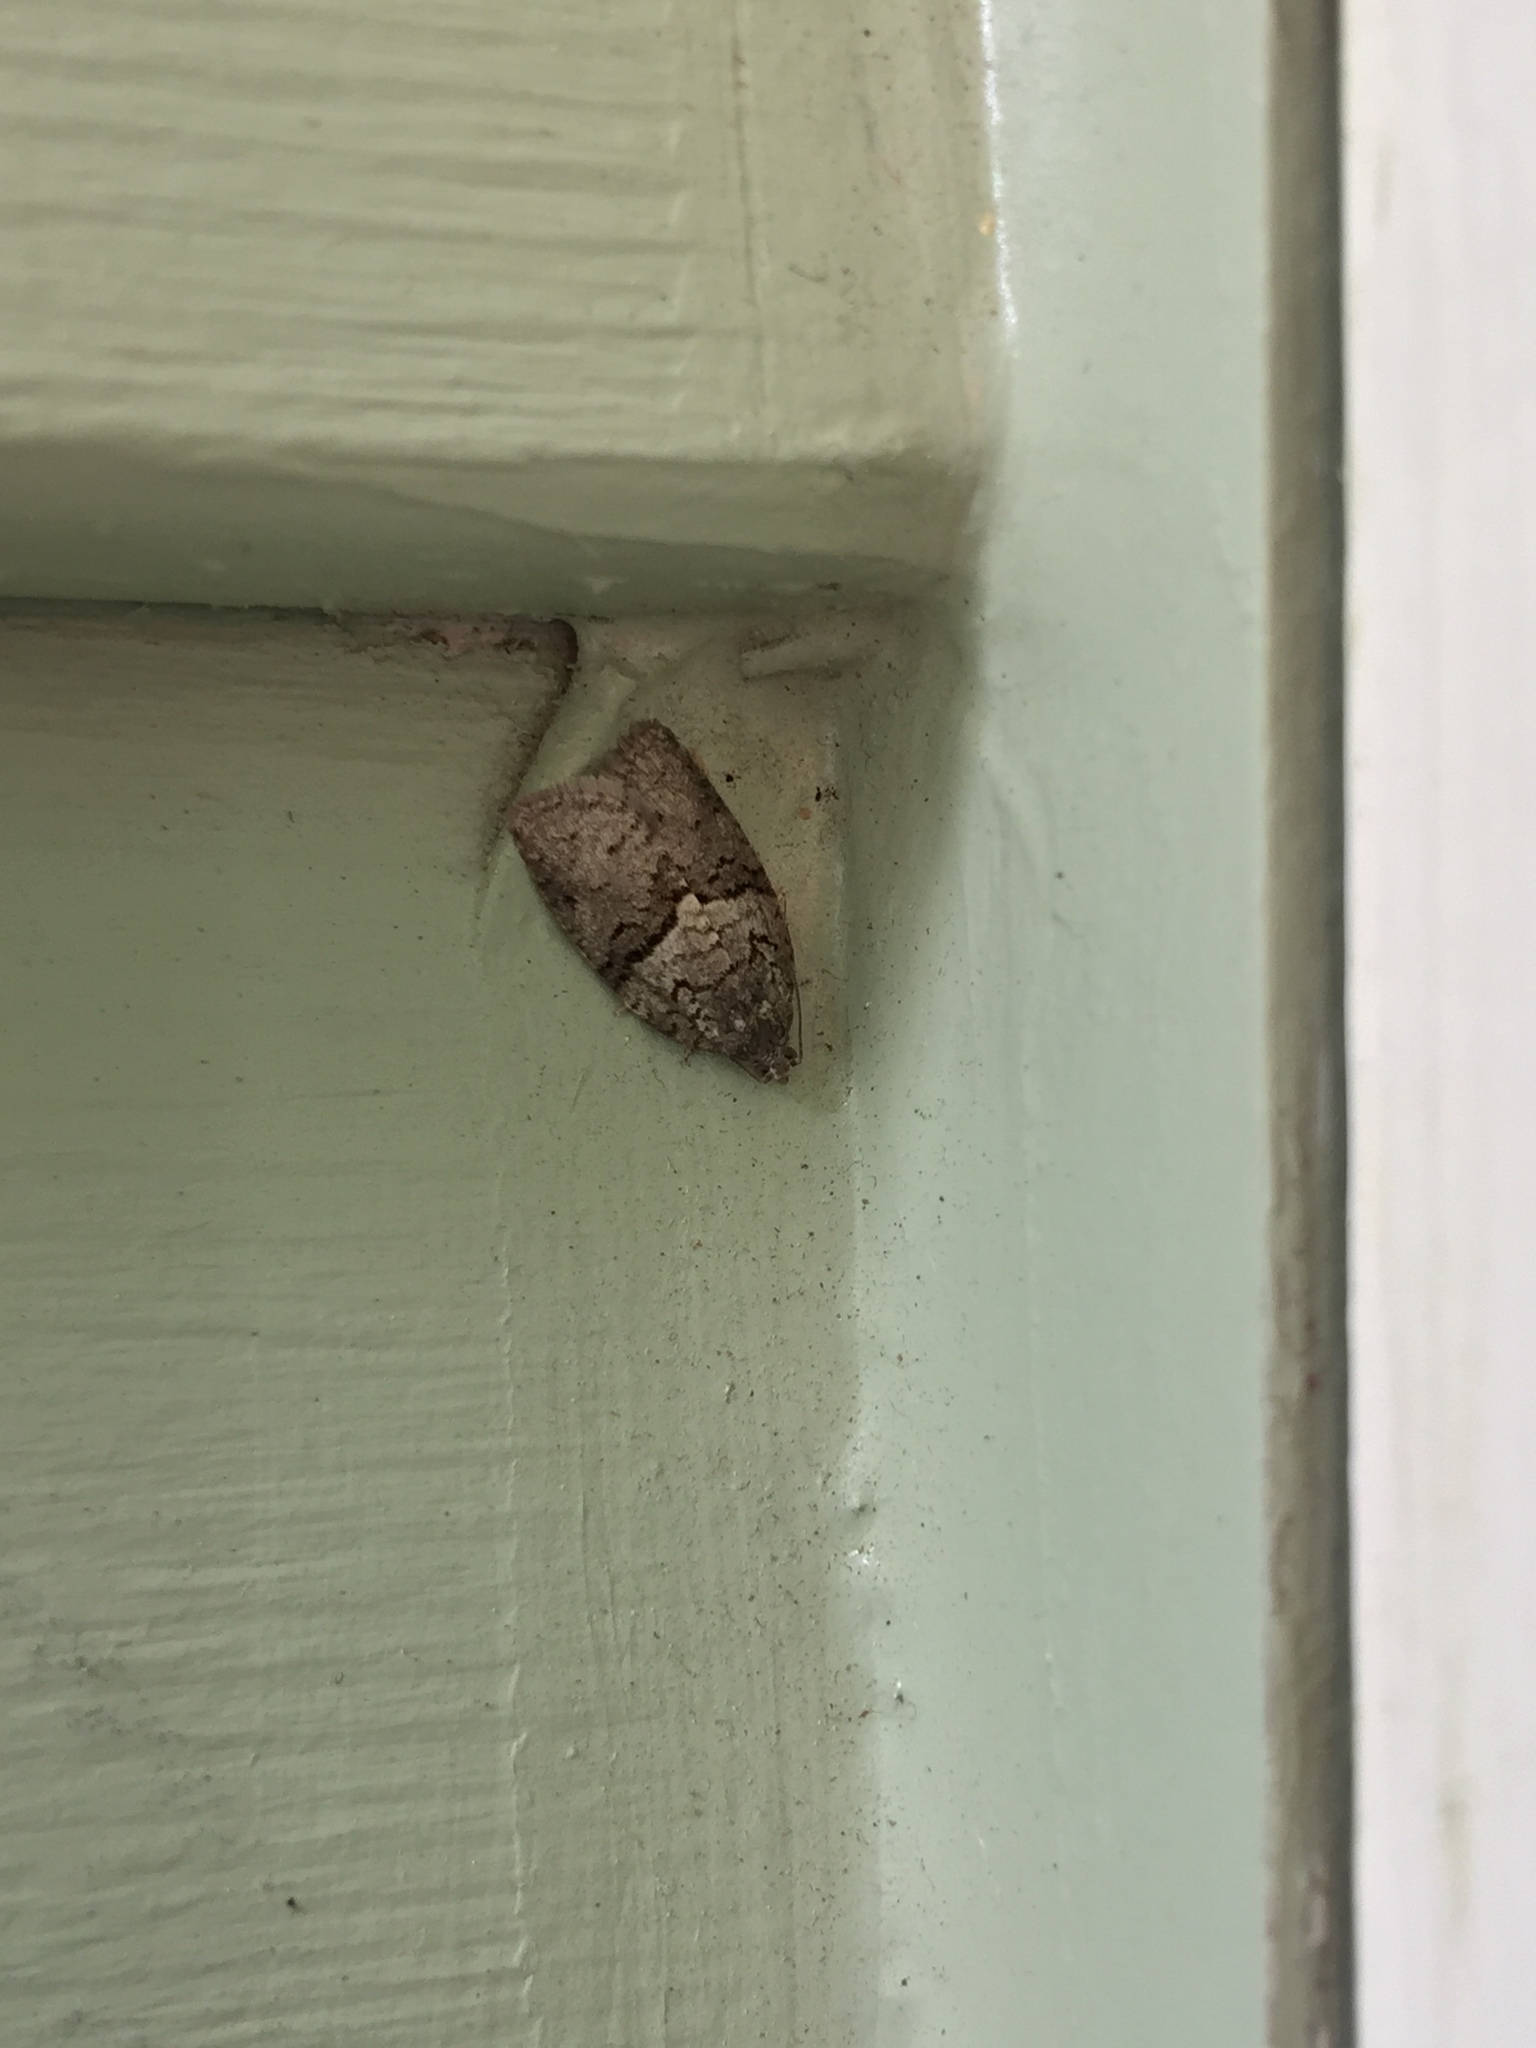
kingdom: Animalia
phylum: Arthropoda
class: Insecta
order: Lepidoptera
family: Tortricidae
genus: Syndemis
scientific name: Syndemis afflictana
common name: Gray leafroller moth
